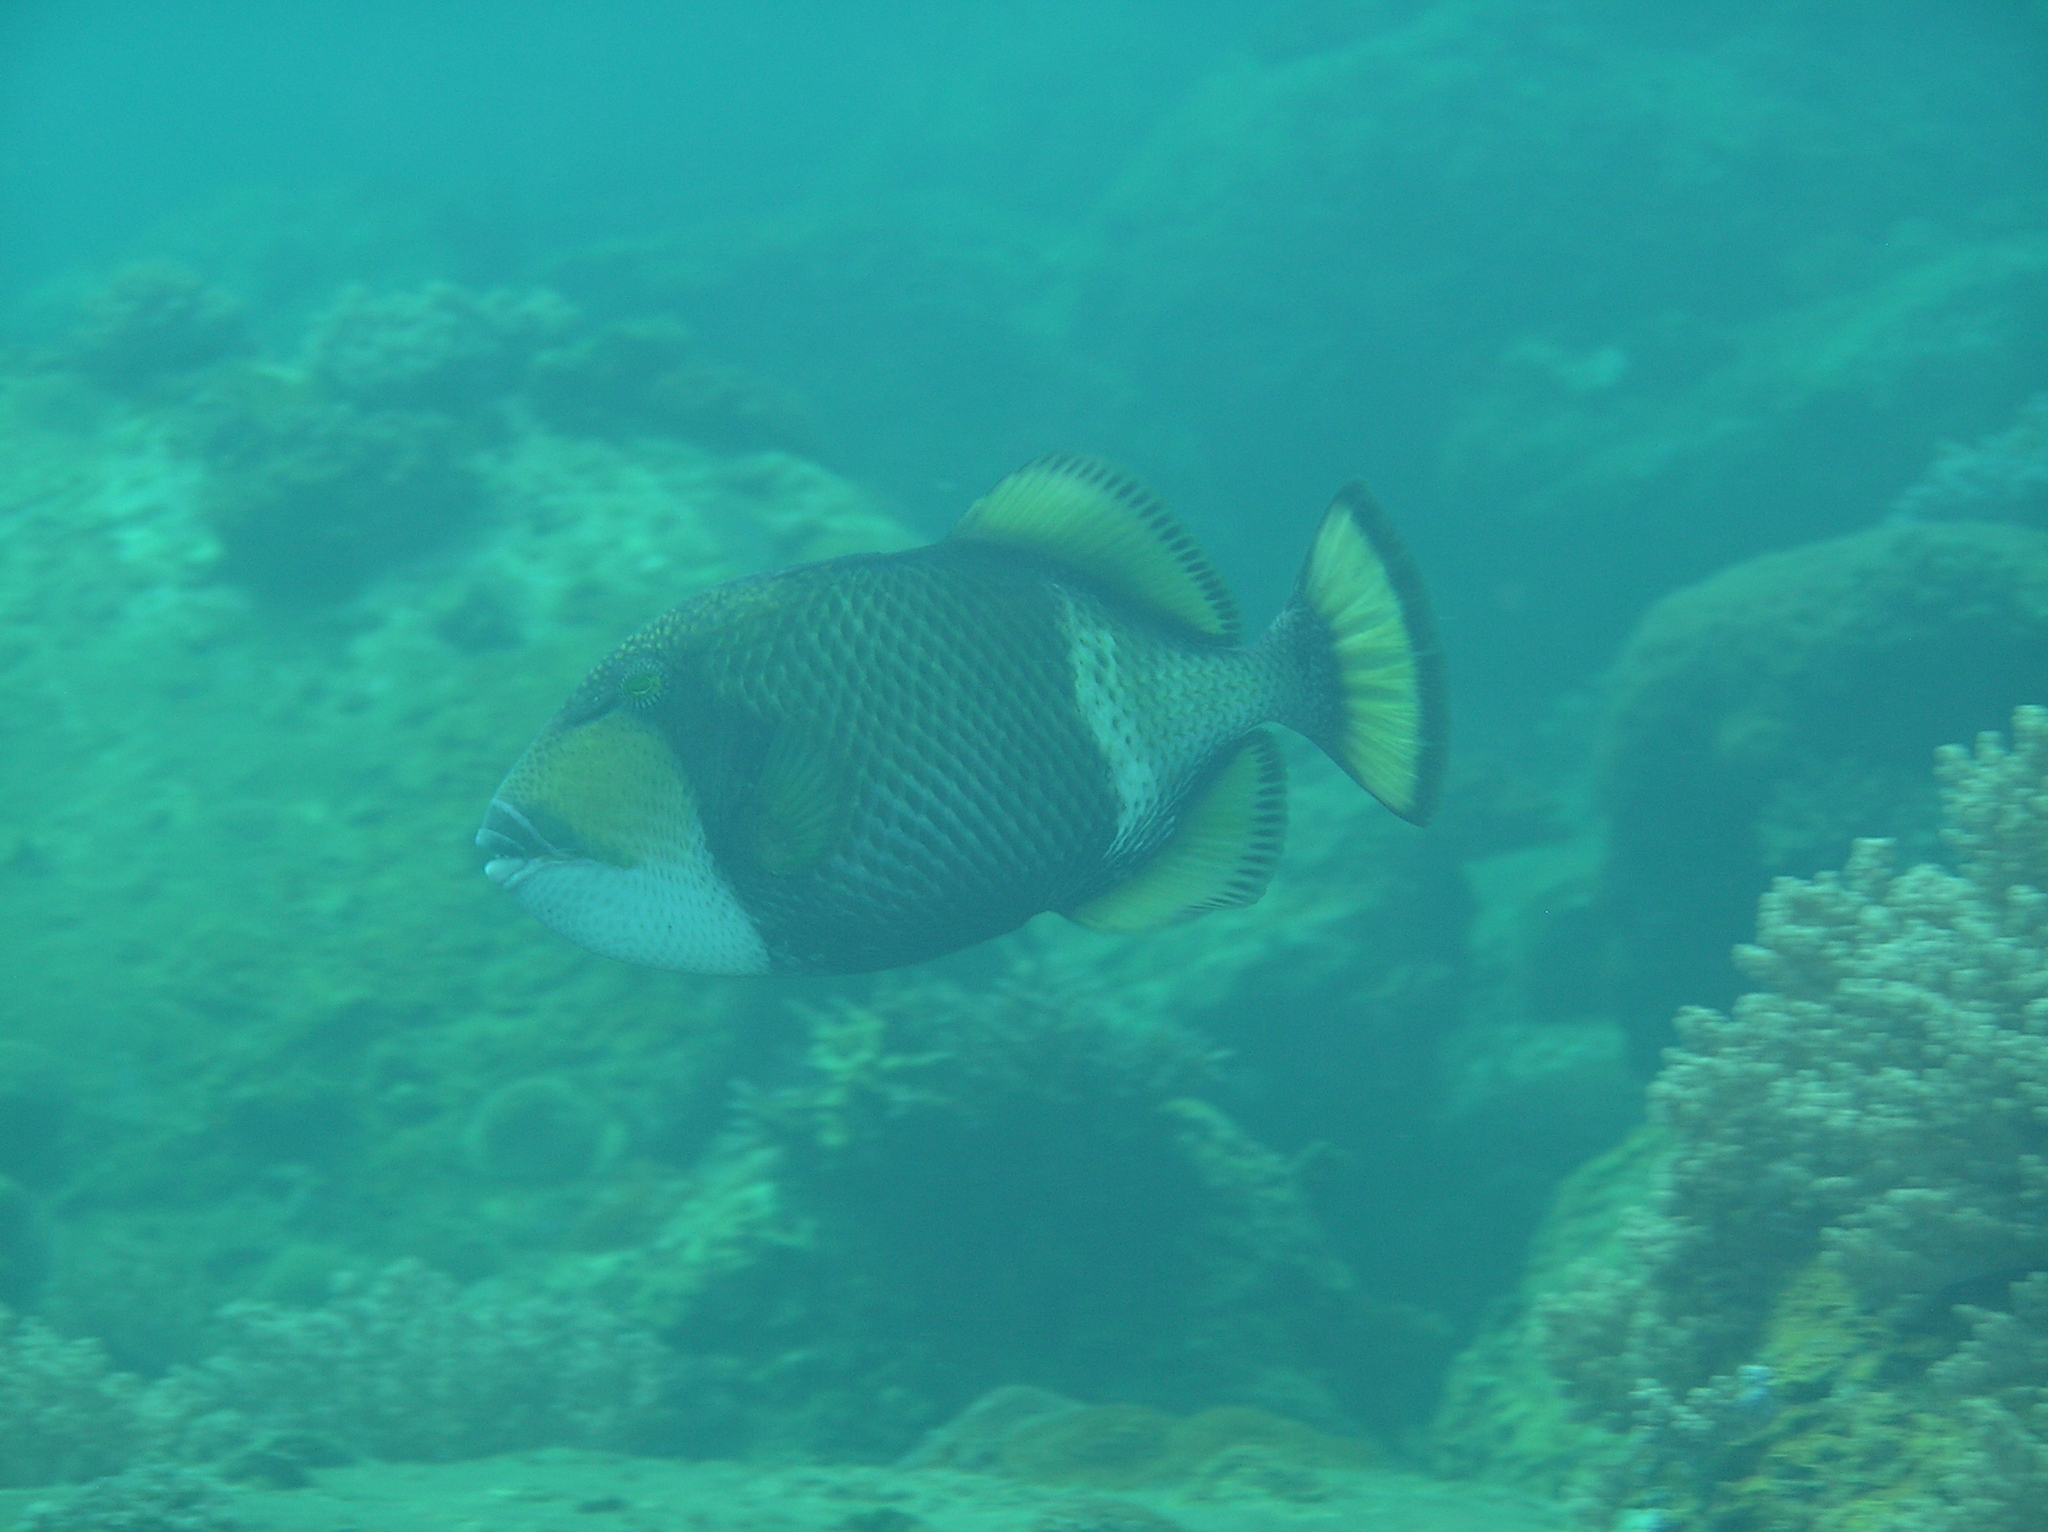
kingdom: Animalia
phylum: Chordata
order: Tetraodontiformes
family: Balistidae
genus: Balistoides
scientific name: Balistoides viridescens
